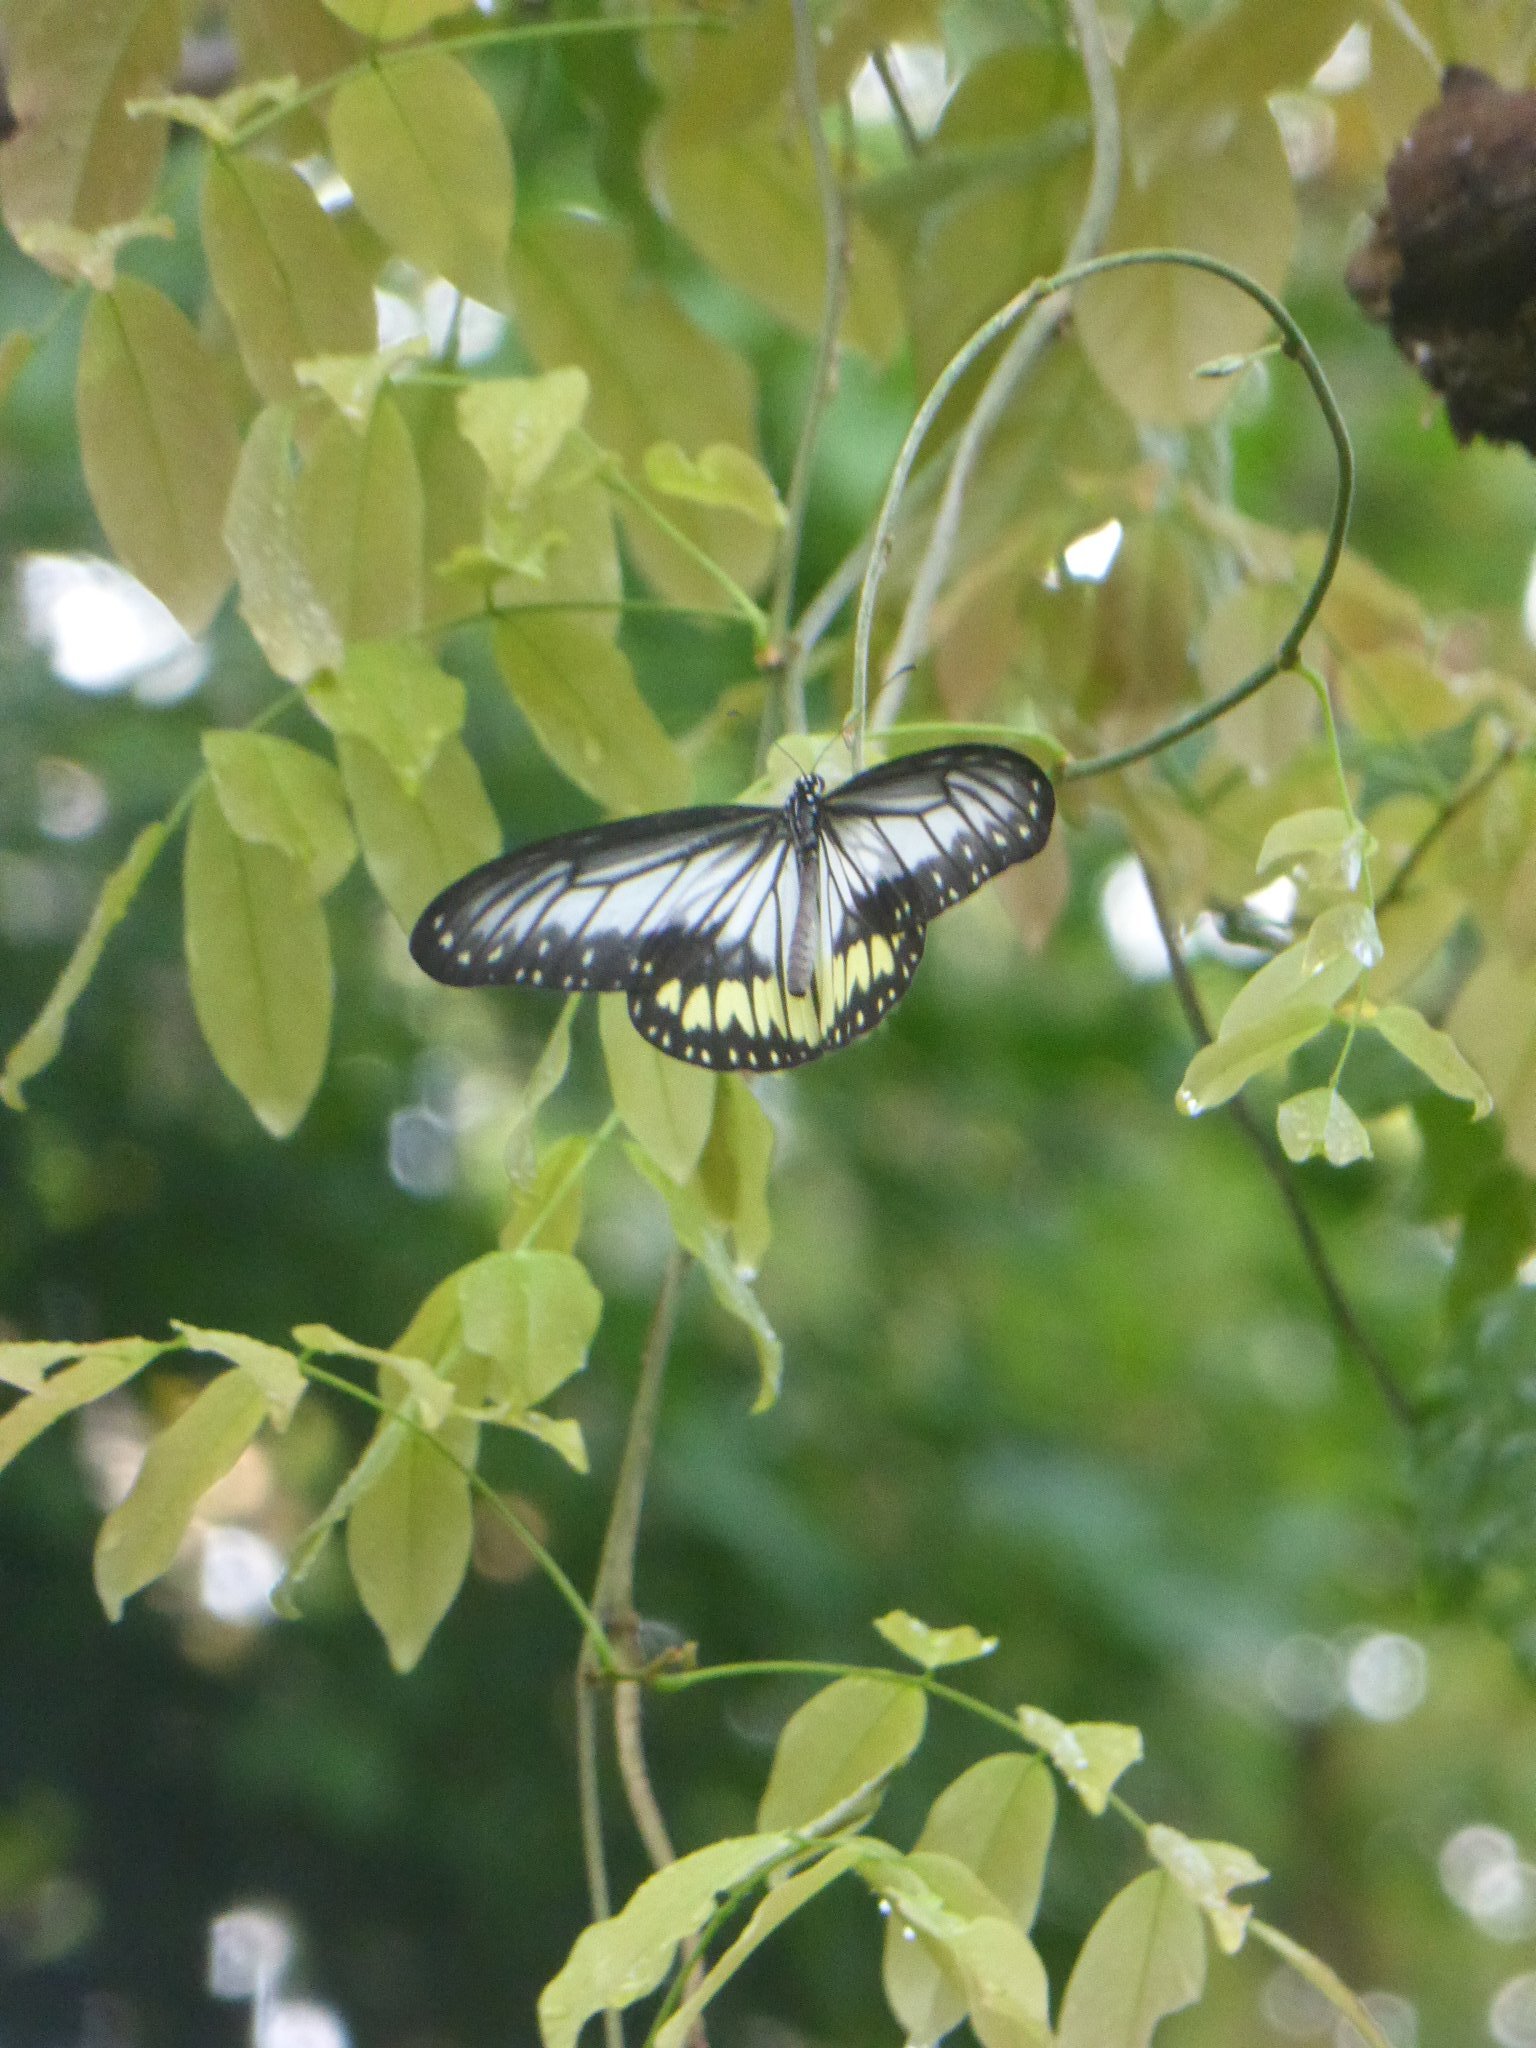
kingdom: Animalia
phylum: Arthropoda
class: Insecta
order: Lepidoptera
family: Nymphalidae
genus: Ideopsis
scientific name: Ideopsis vitrea
